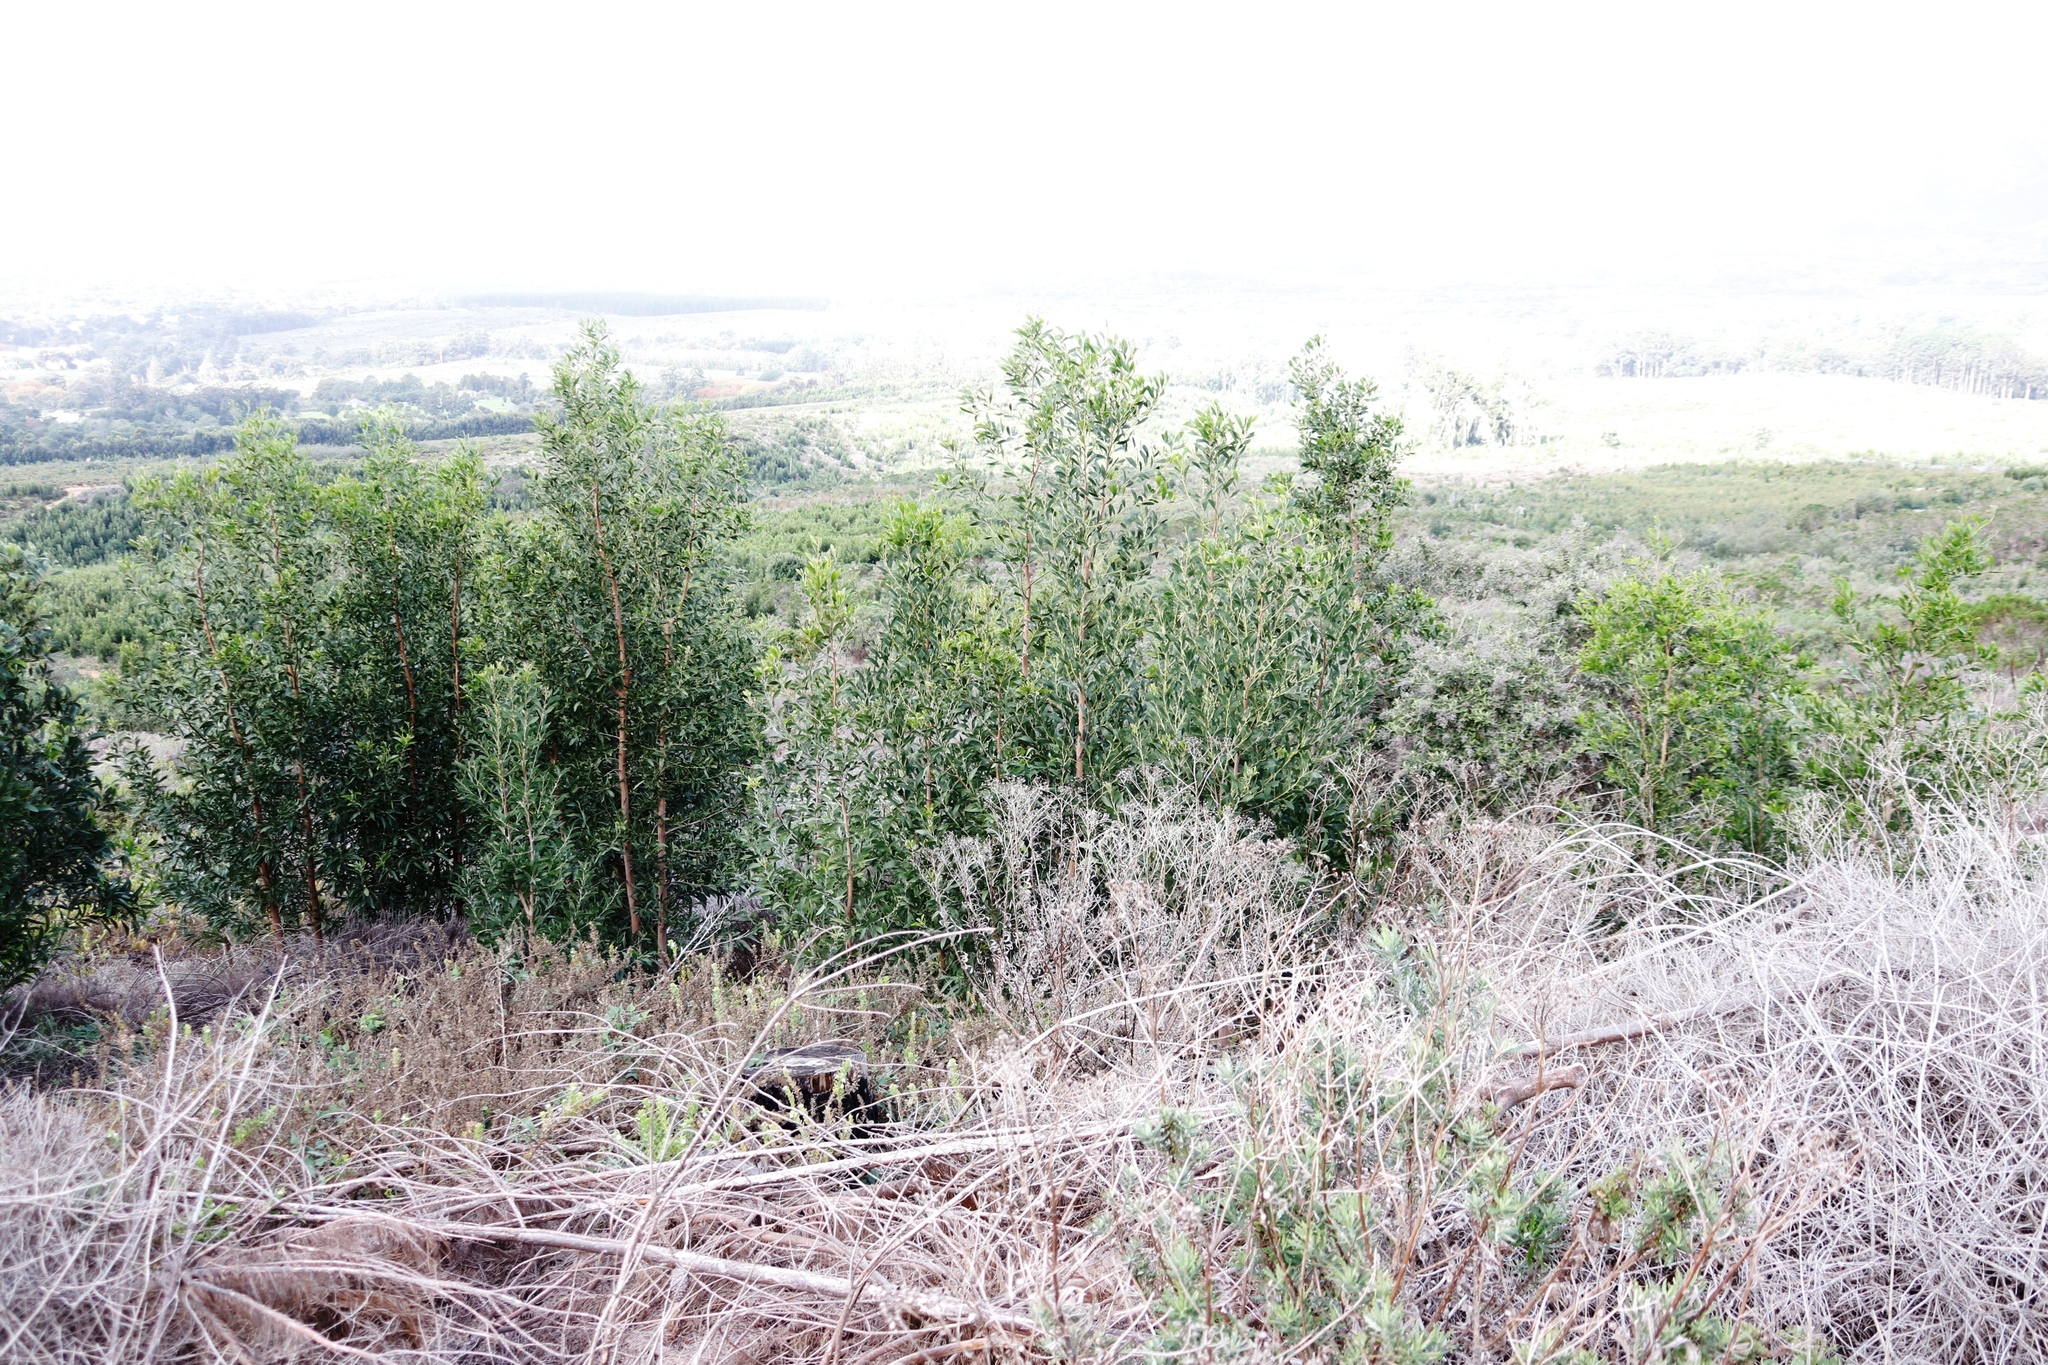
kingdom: Plantae
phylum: Tracheophyta
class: Magnoliopsida
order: Fabales
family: Fabaceae
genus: Acacia
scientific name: Acacia melanoxylon
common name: Blackwood
